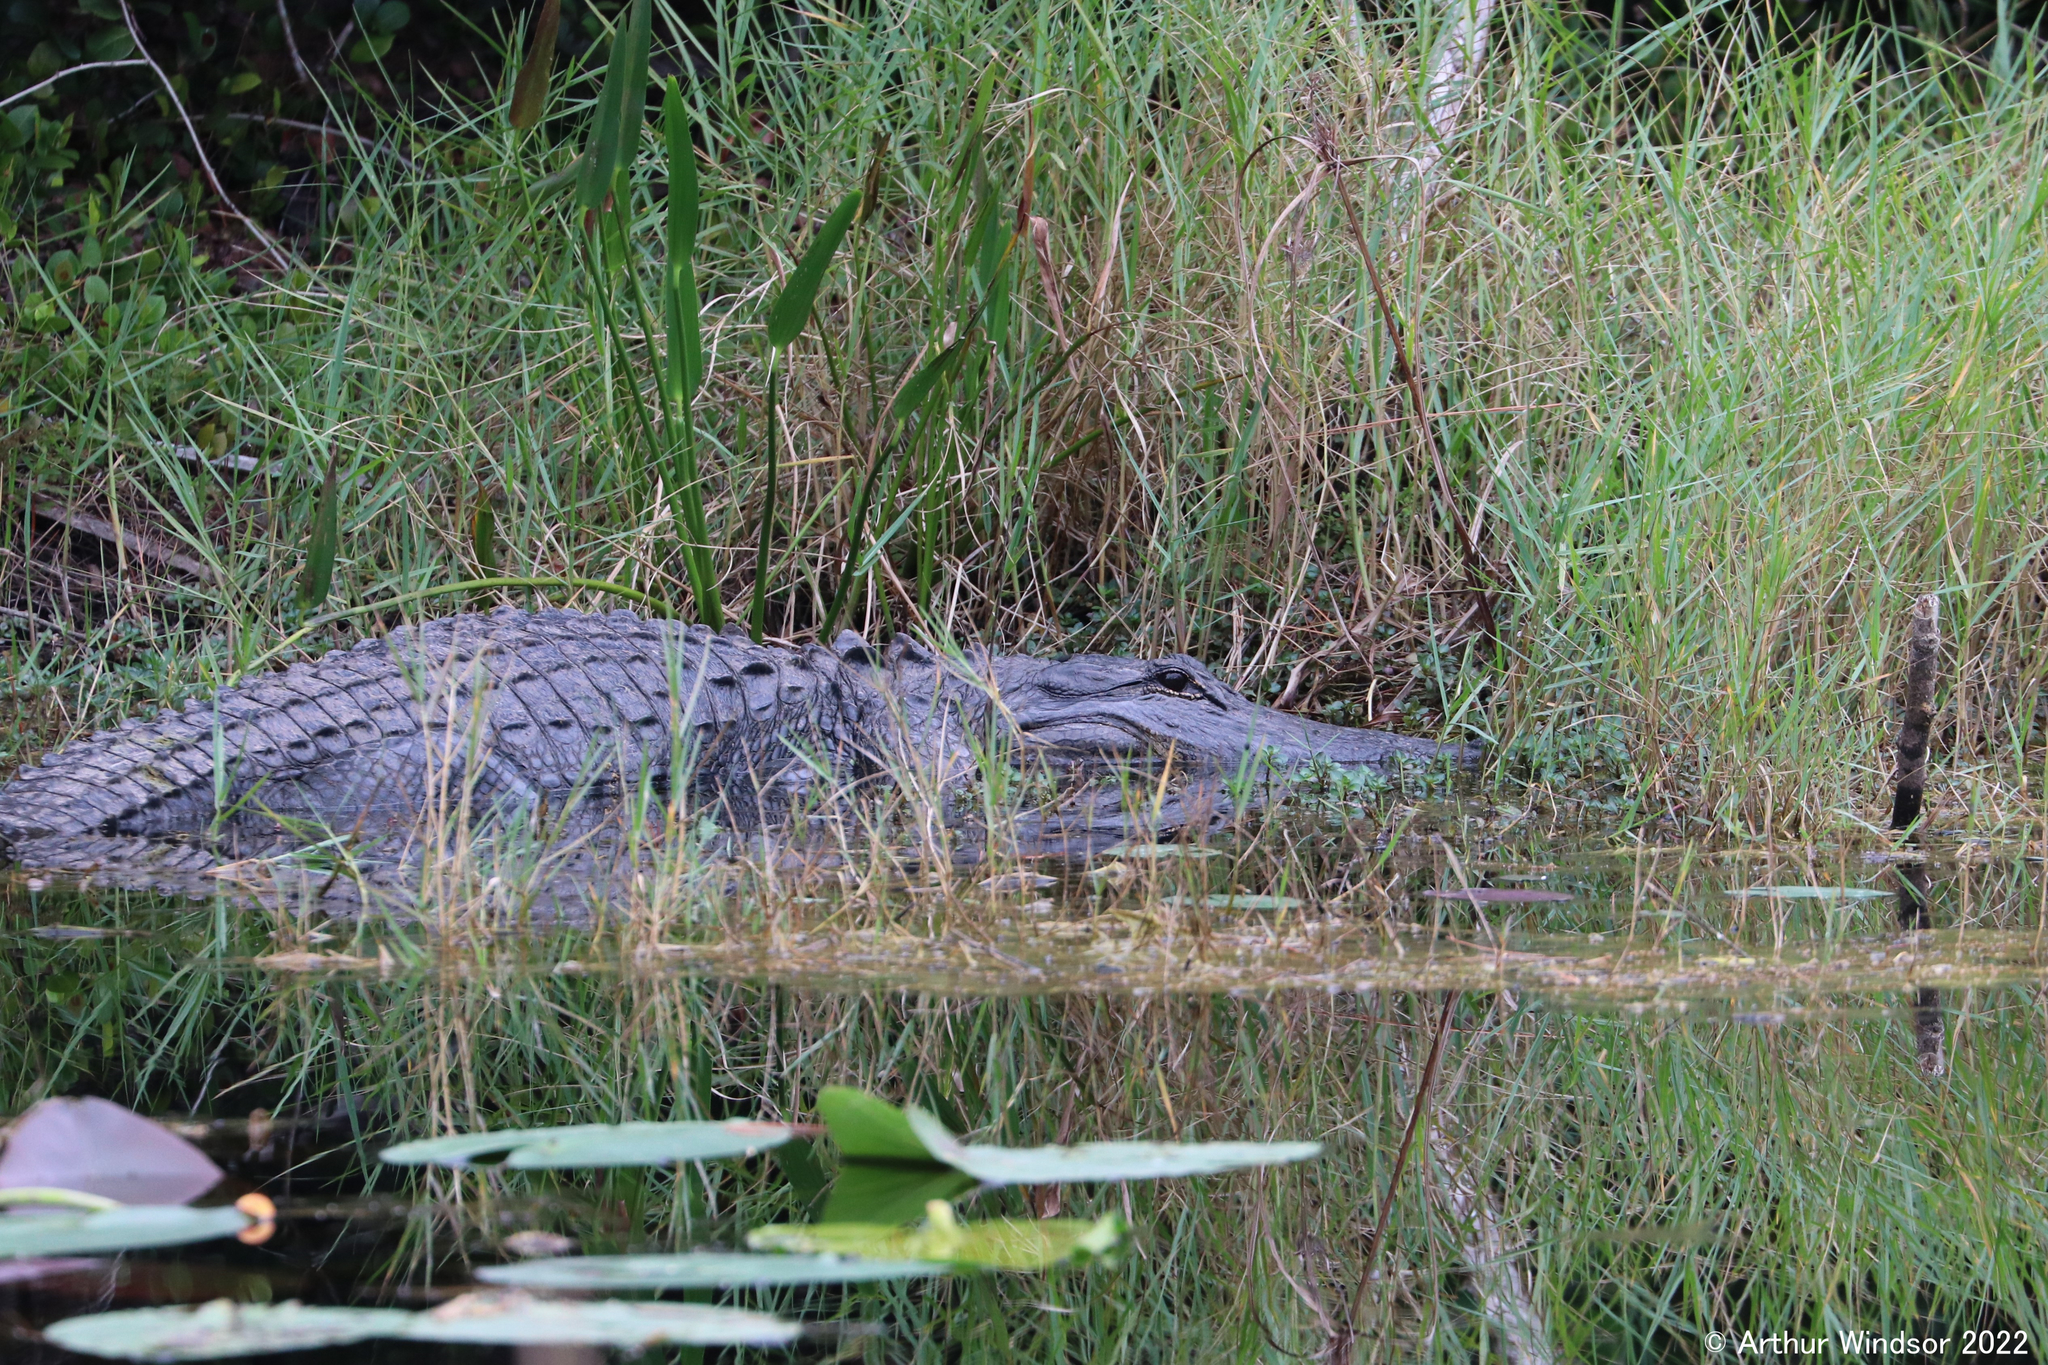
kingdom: Animalia
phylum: Chordata
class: Crocodylia
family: Alligatoridae
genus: Alligator
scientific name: Alligator mississippiensis
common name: American alligator
